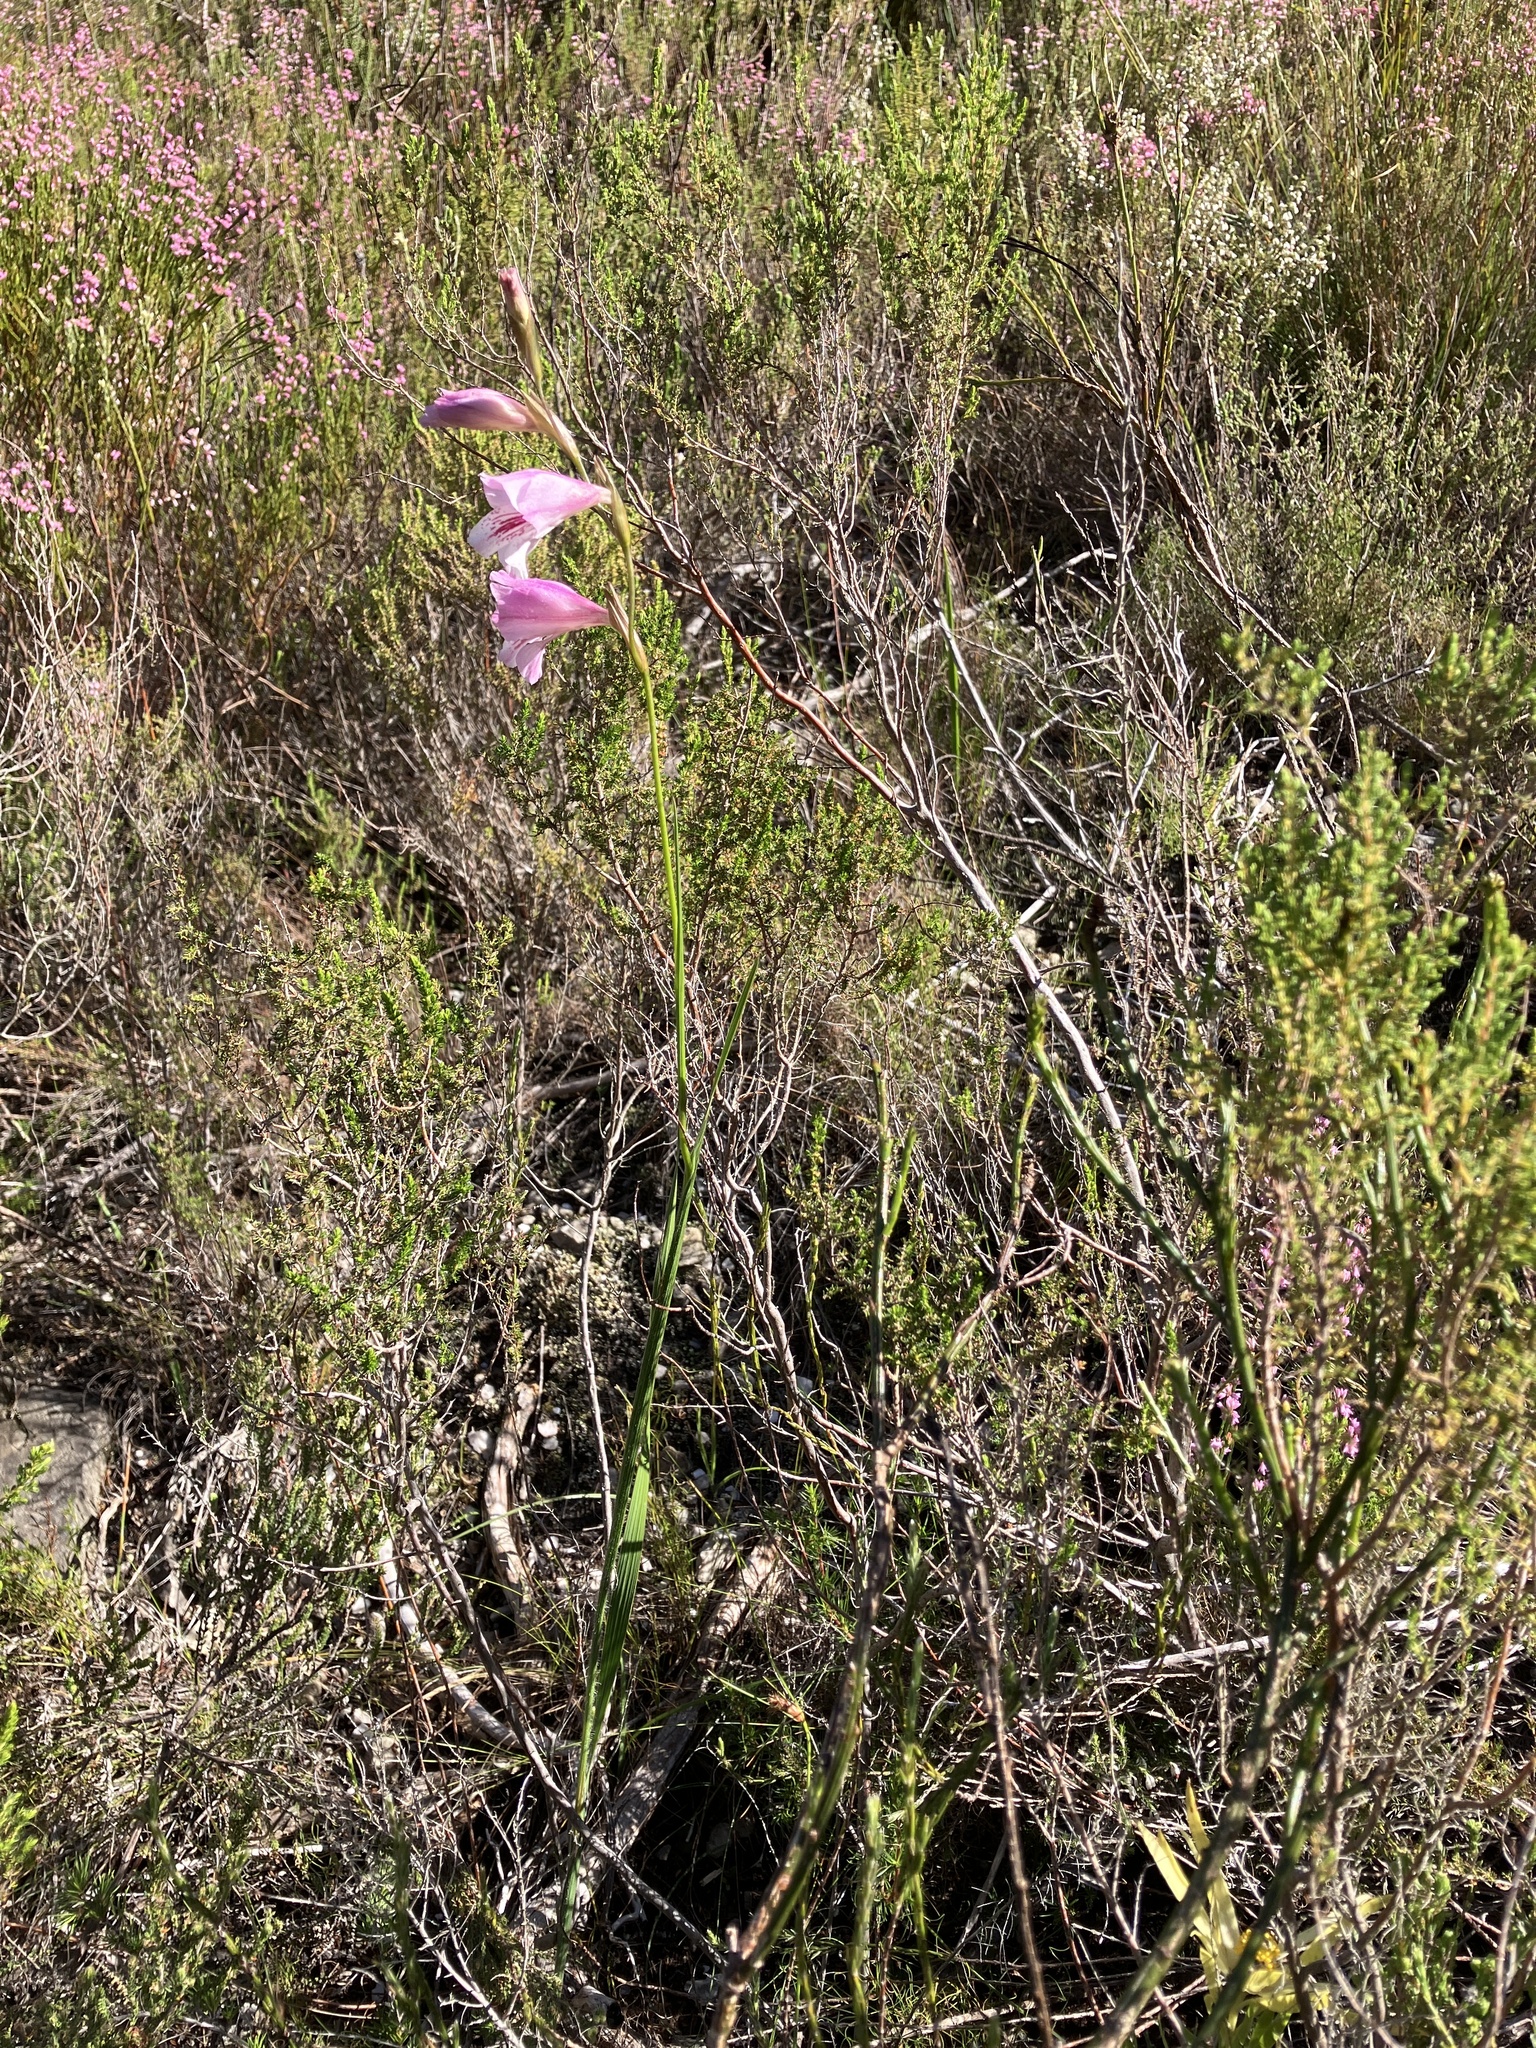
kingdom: Plantae
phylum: Tracheophyta
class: Liliopsida
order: Asparagales
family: Iridaceae
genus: Gladiolus
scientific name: Gladiolus hirsutus
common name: Small pink afrikaner
